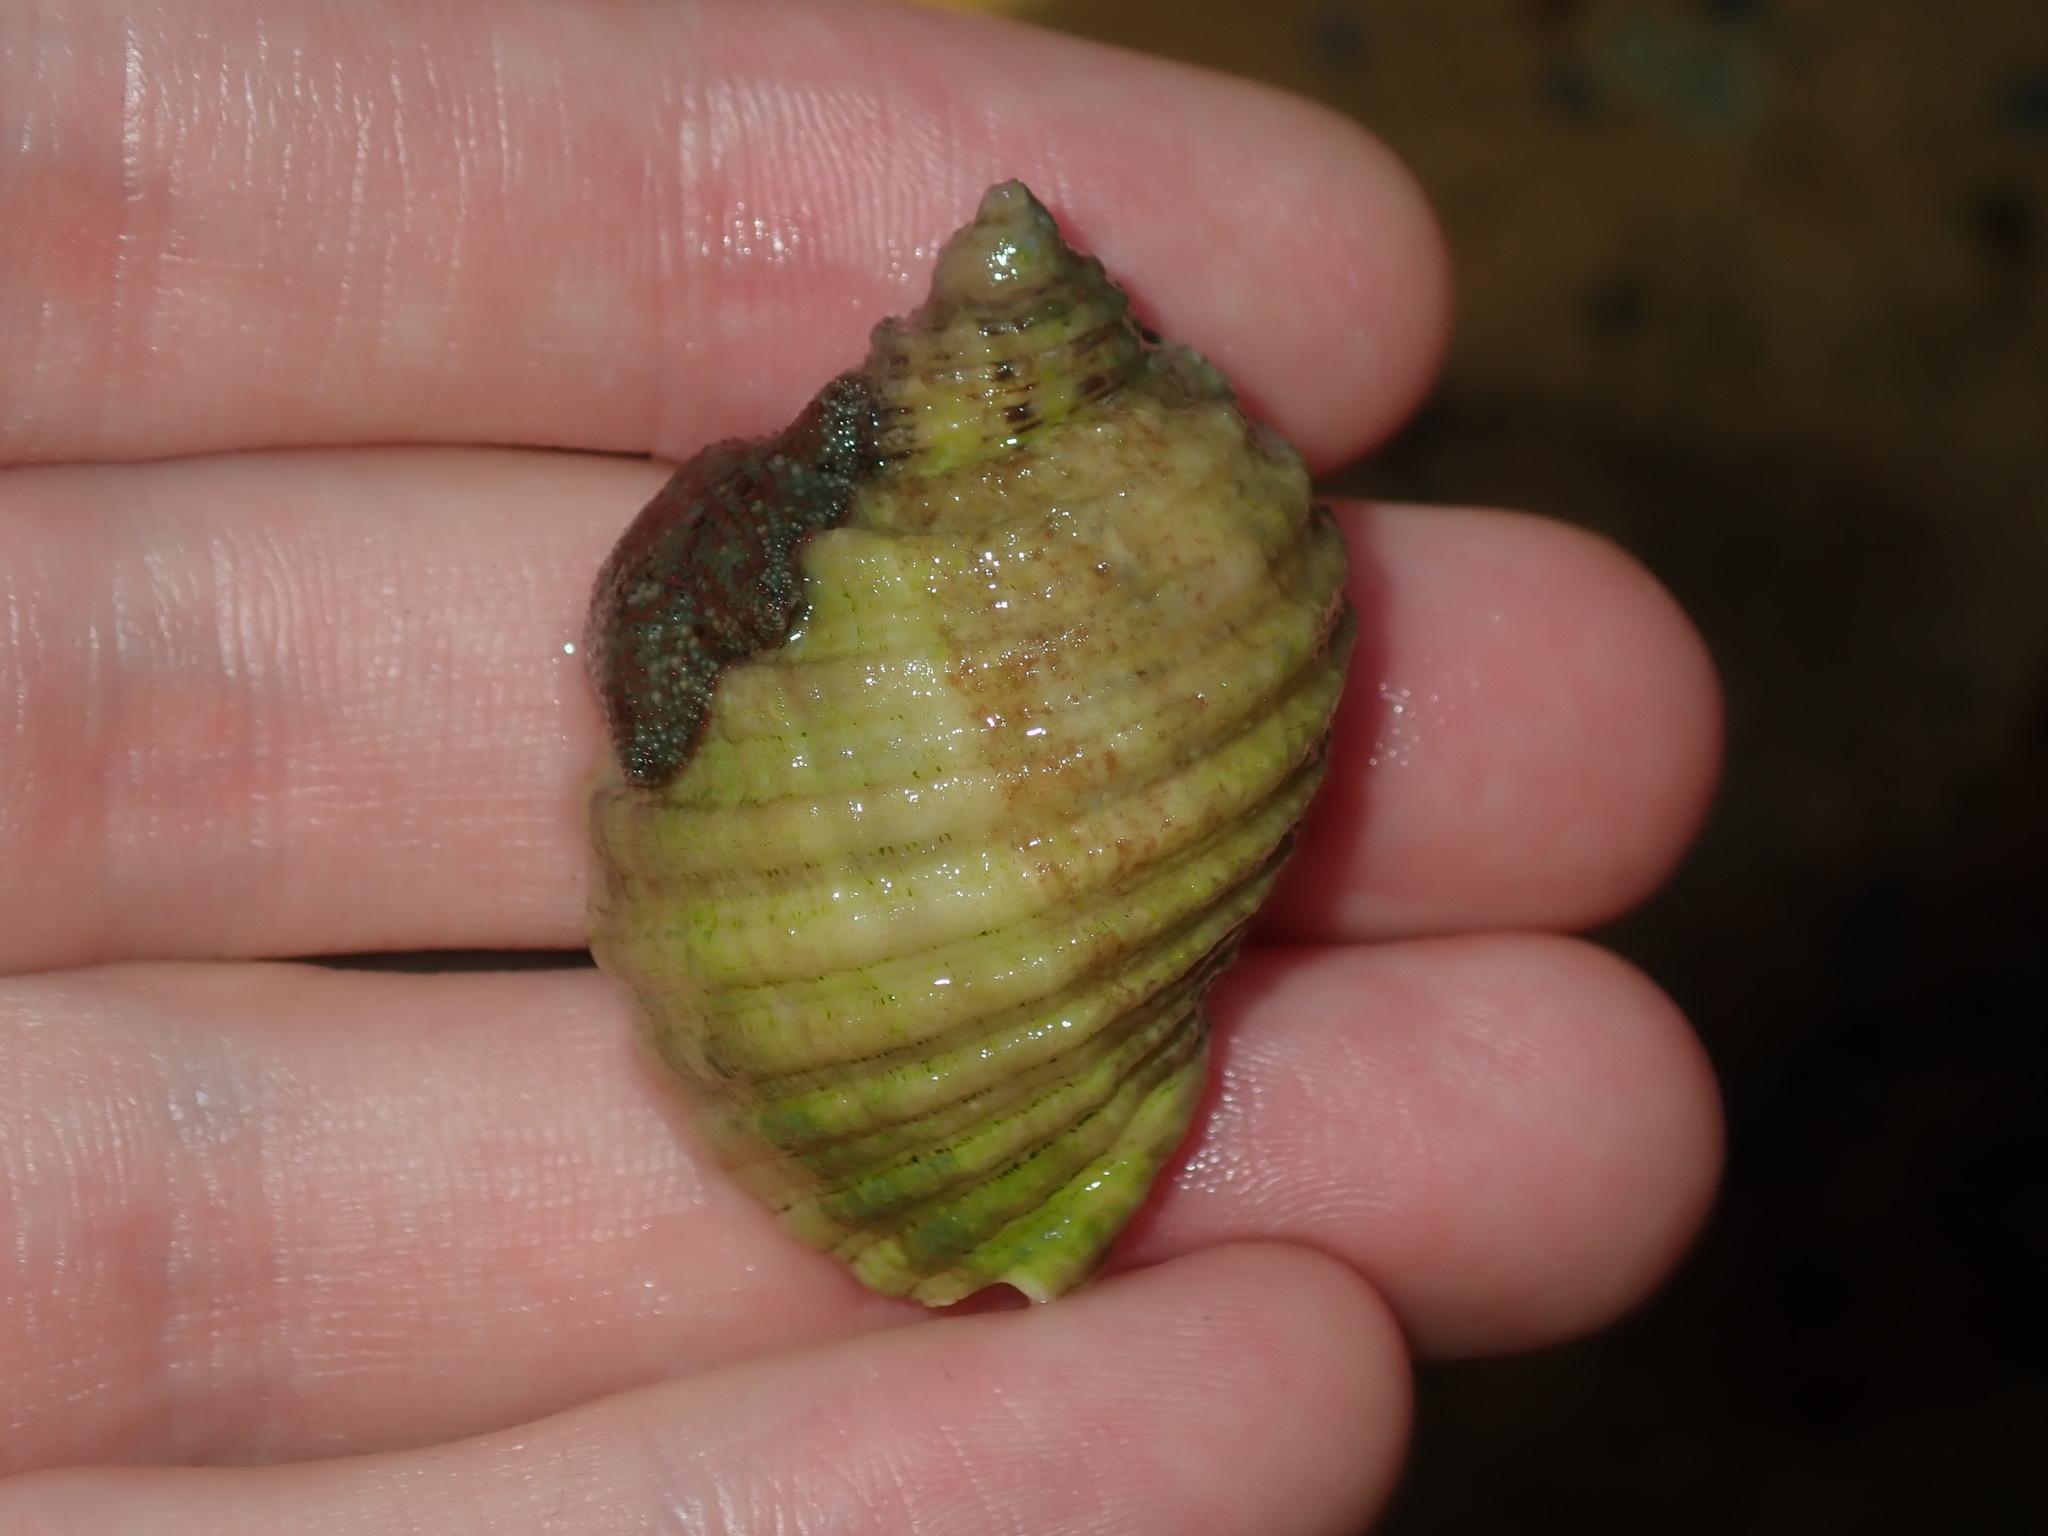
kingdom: Animalia
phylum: Mollusca
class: Gastropoda
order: Neogastropoda
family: Muricidae
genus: Dicathais
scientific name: Dicathais orbita
